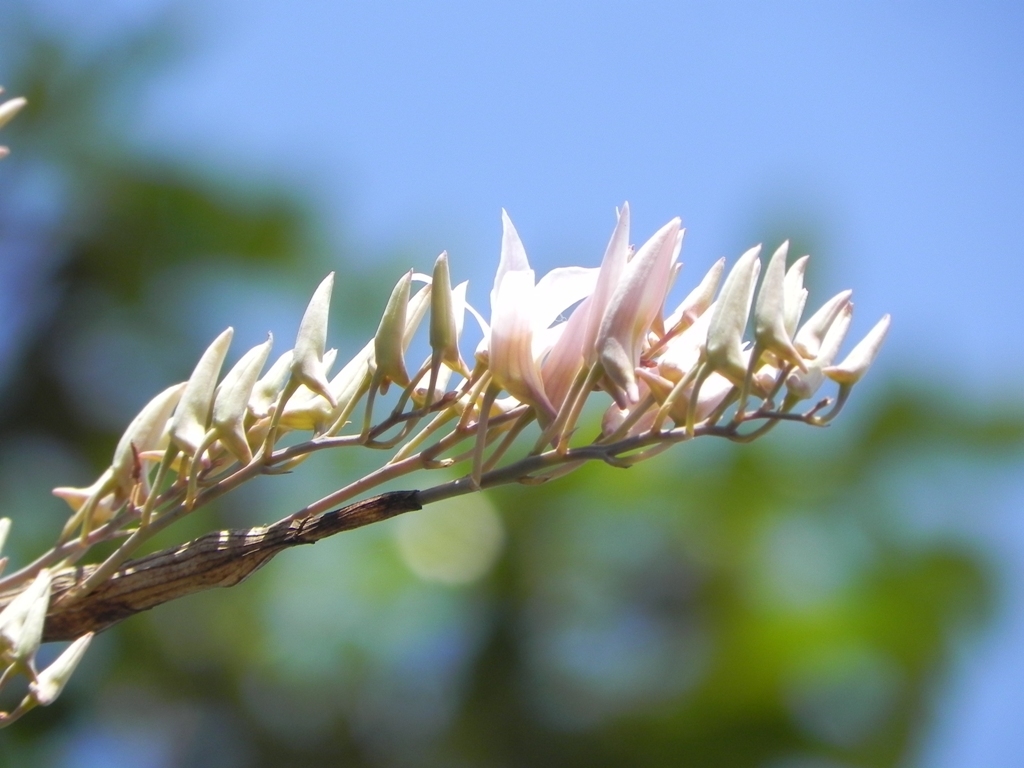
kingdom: Plantae
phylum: Tracheophyta
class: Liliopsida
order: Asparagales
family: Orchidaceae
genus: Dendrobium
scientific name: Dendrobium barbatulum
